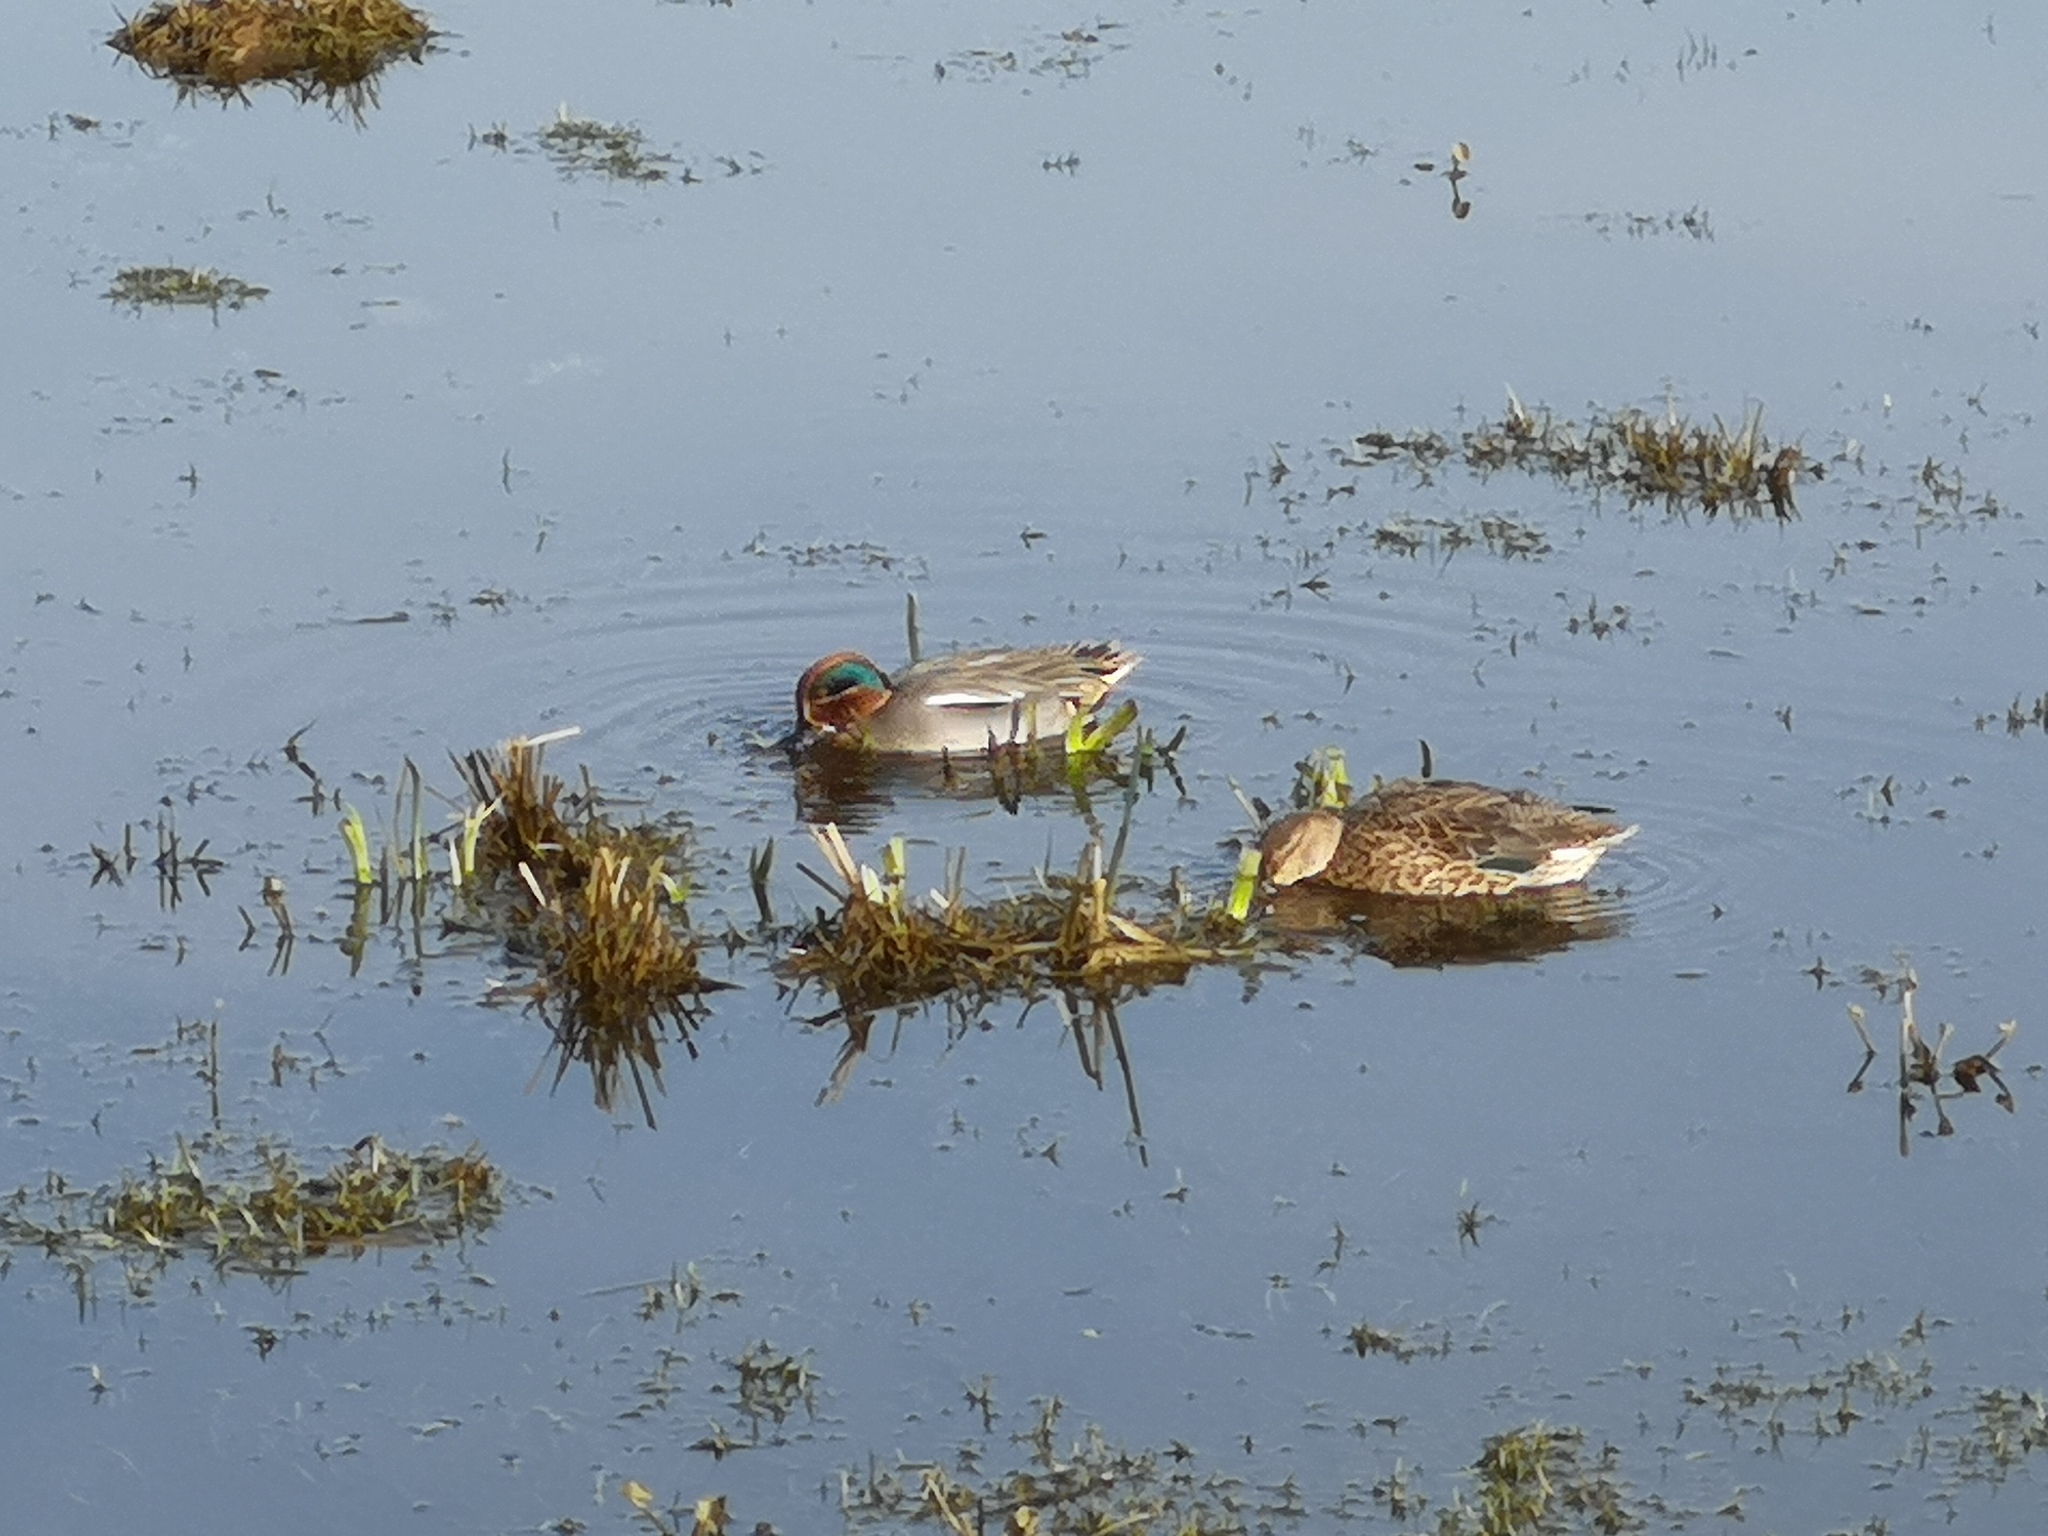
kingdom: Animalia
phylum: Chordata
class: Aves
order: Anseriformes
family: Anatidae
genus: Anas
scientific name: Anas crecca
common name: Eurasian teal
